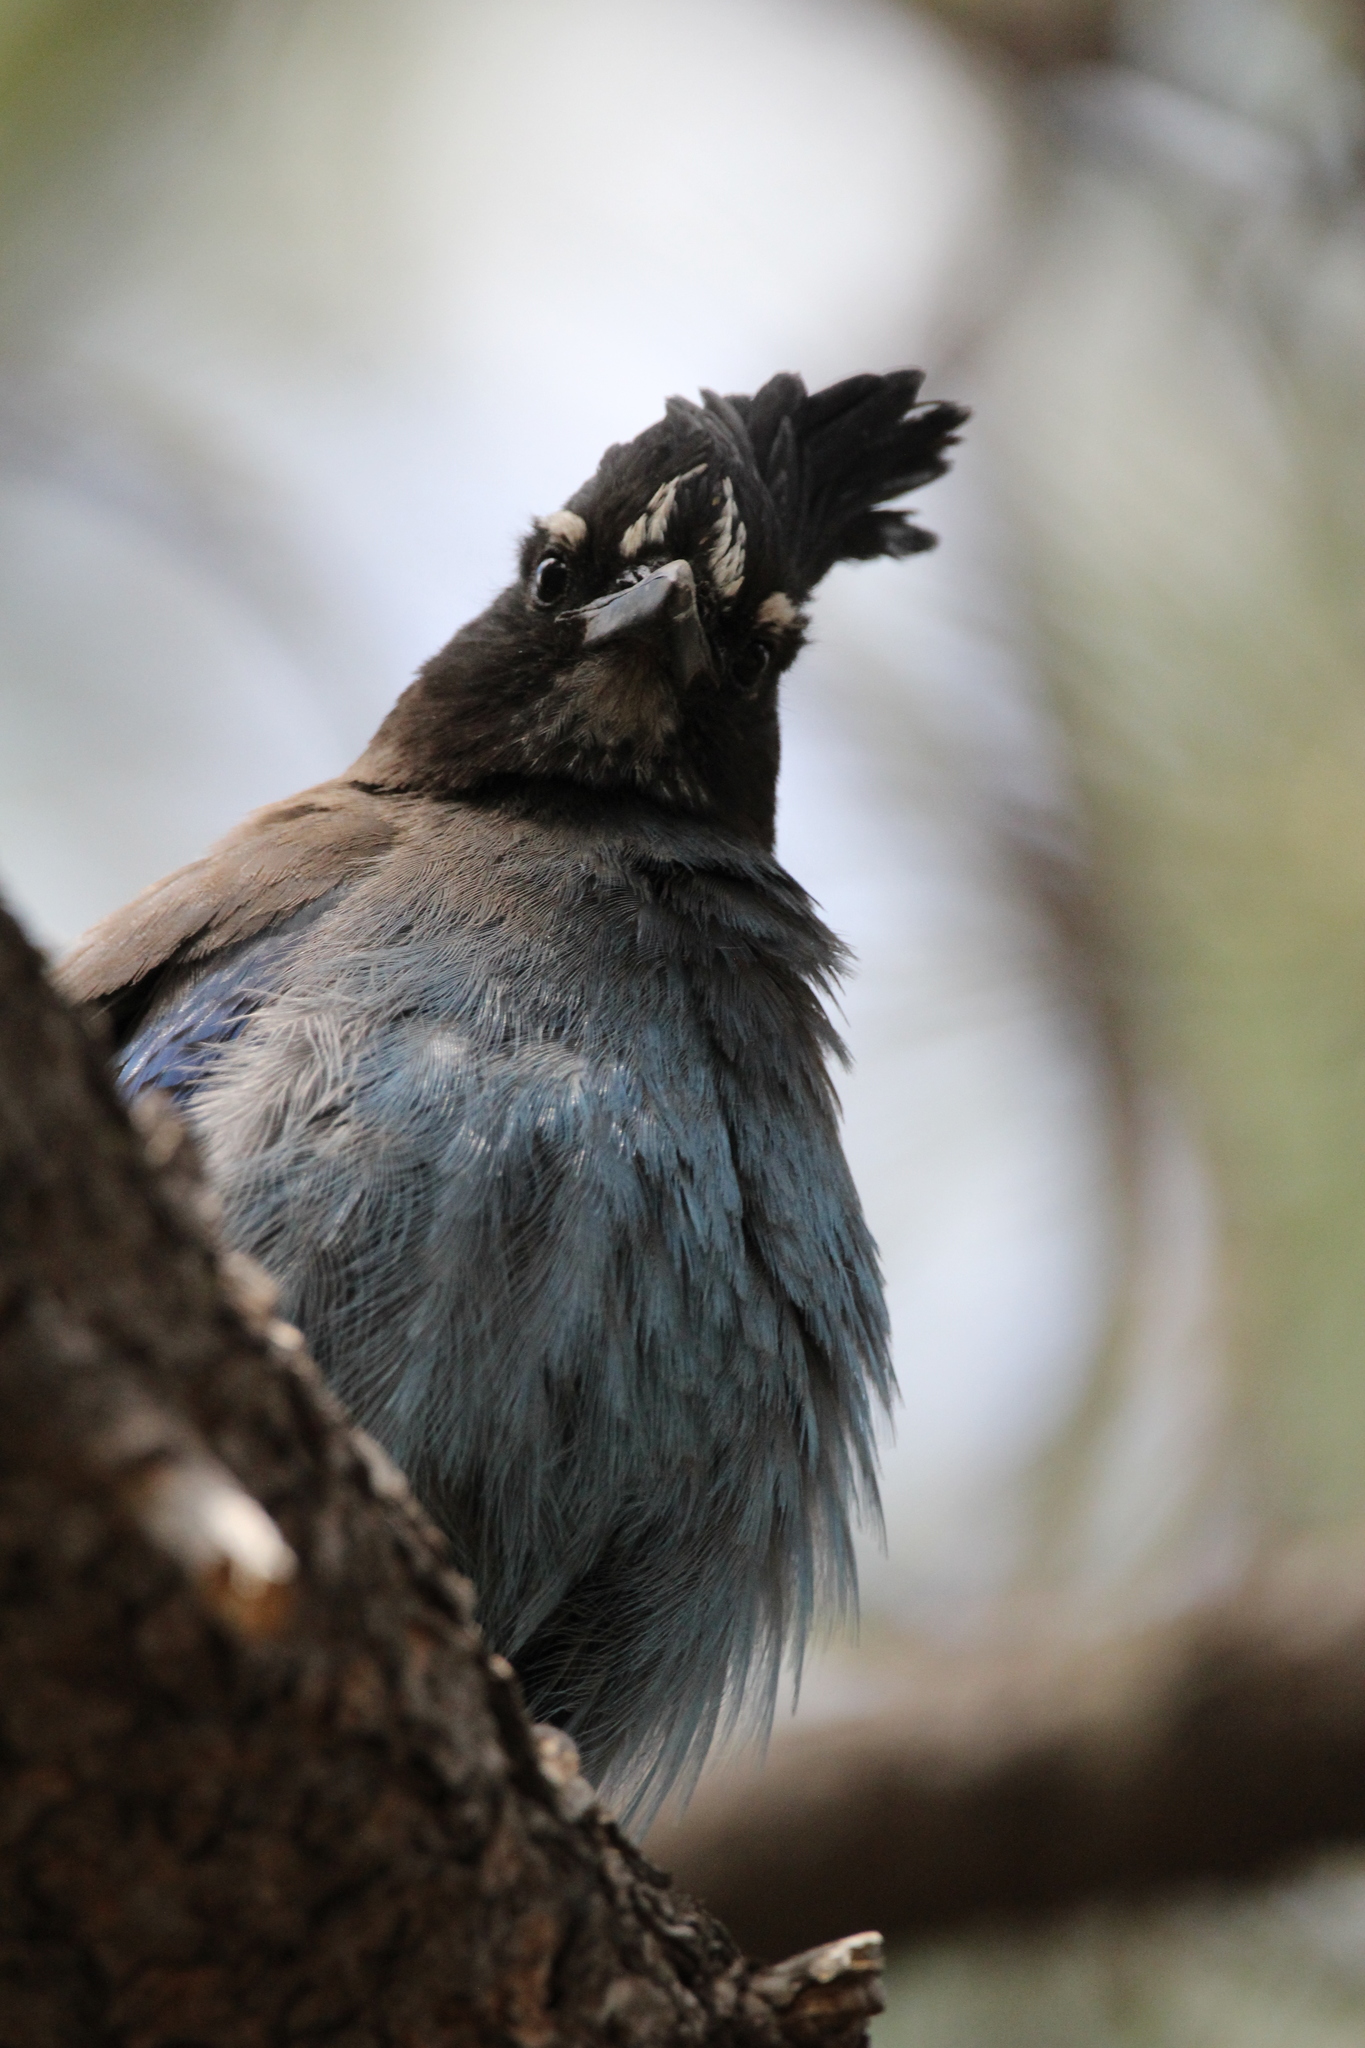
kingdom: Animalia
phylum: Chordata
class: Aves
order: Passeriformes
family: Corvidae
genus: Cyanocitta
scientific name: Cyanocitta stelleri
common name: Steller's jay
